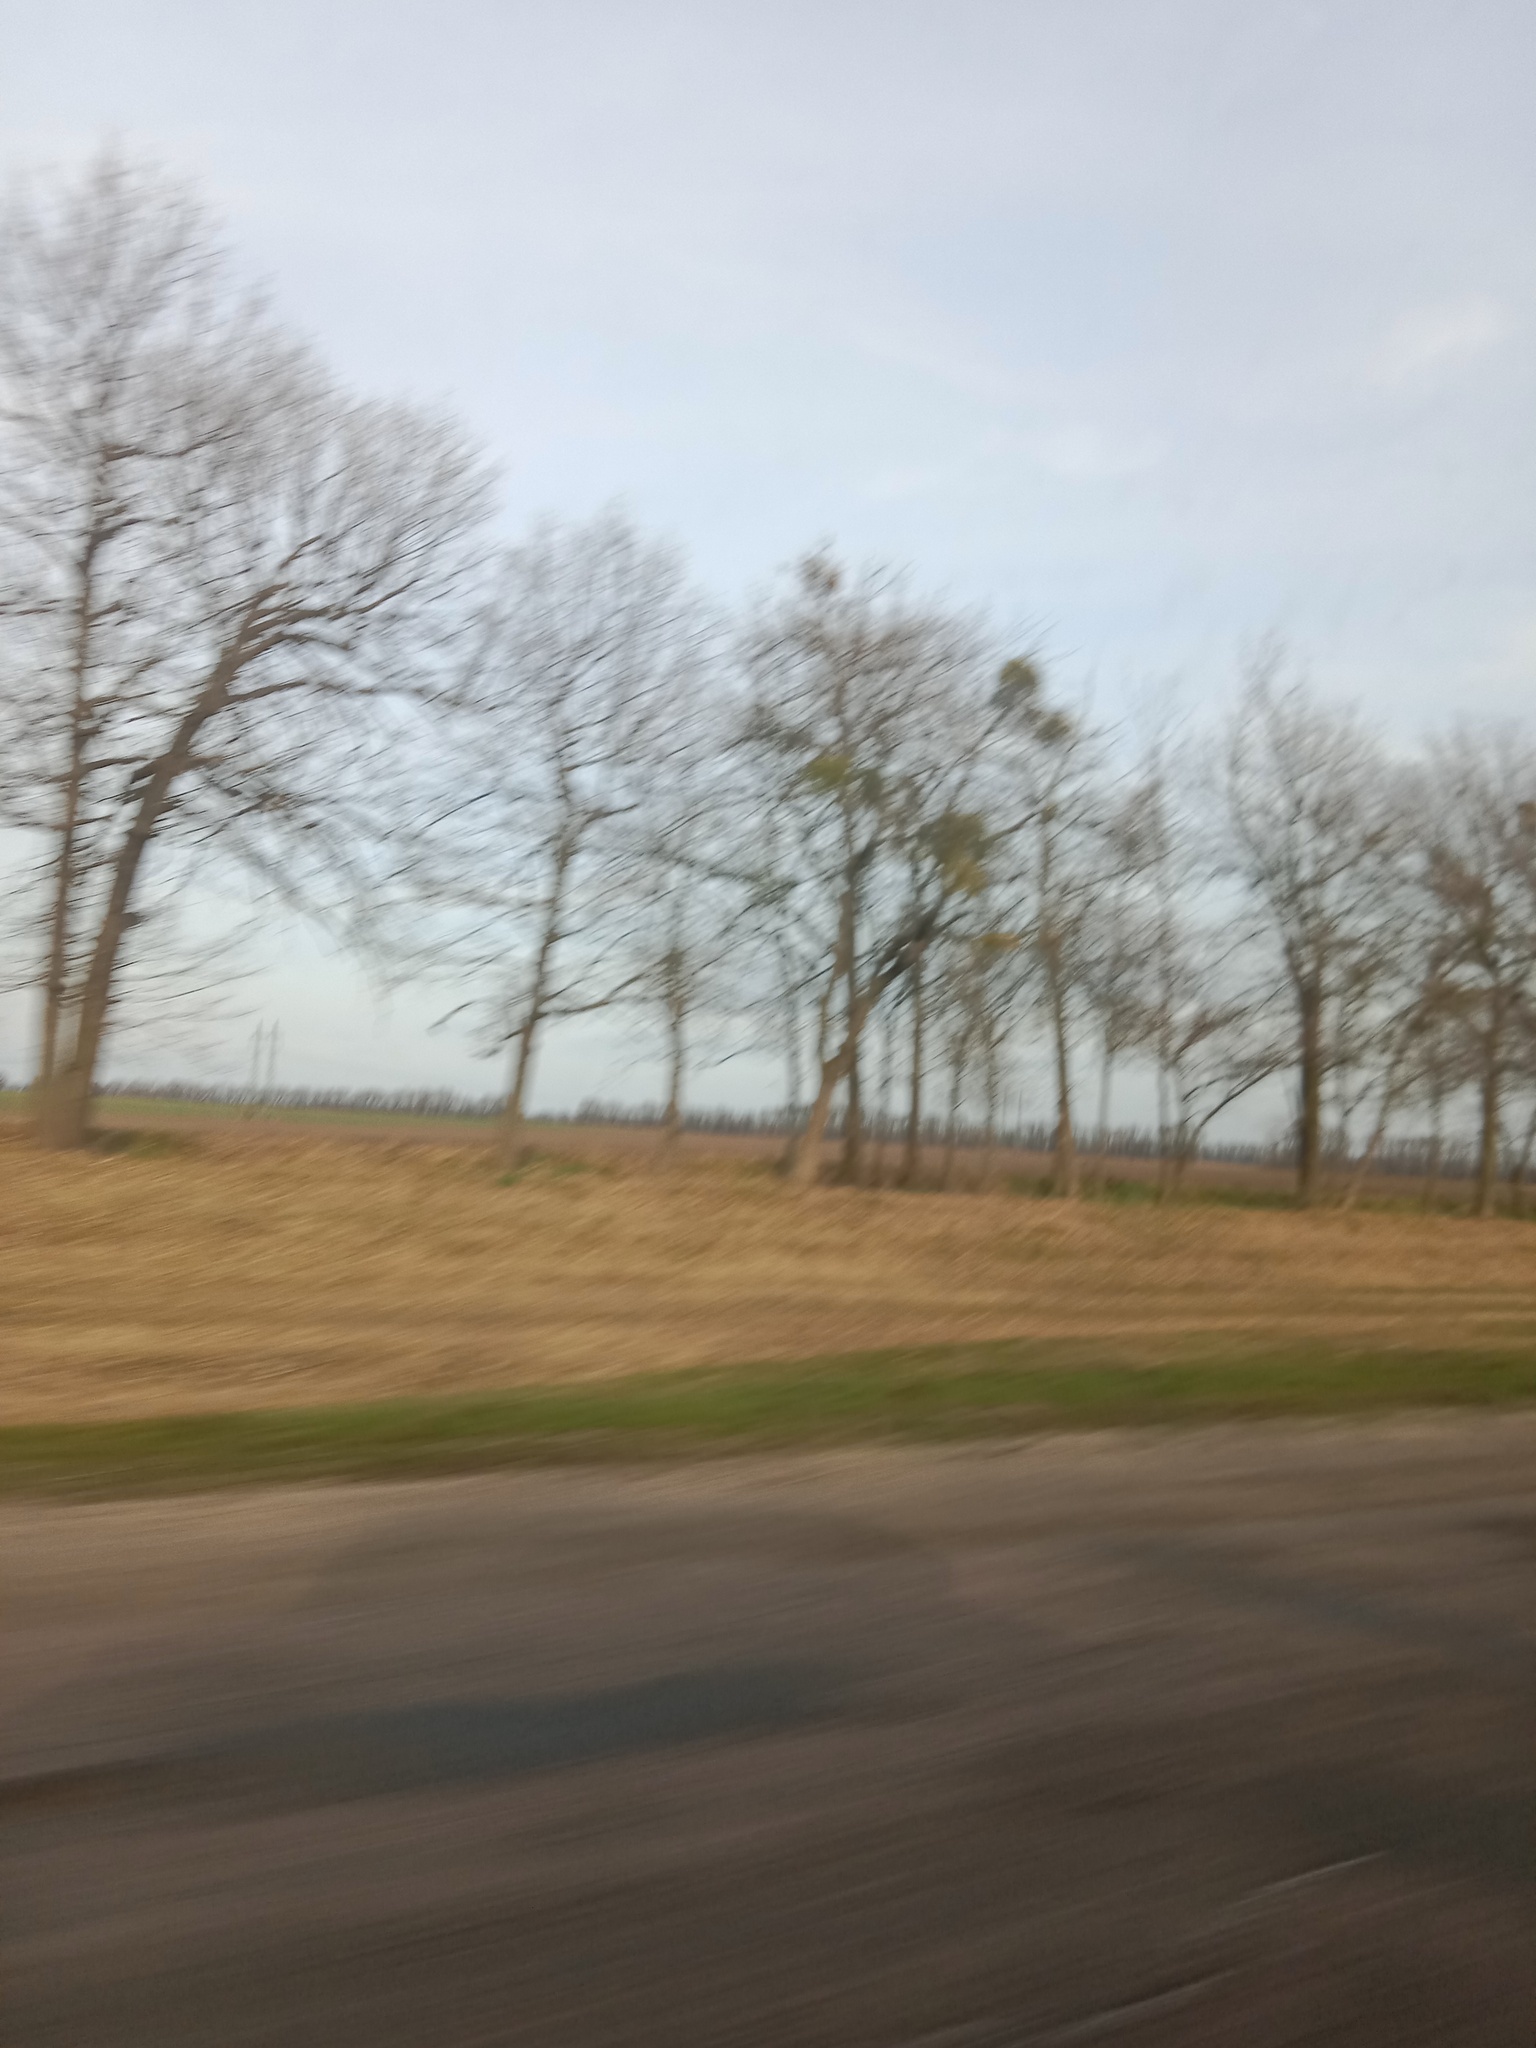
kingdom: Plantae
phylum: Tracheophyta
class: Magnoliopsida
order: Santalales
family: Viscaceae
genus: Viscum
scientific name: Viscum album
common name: Mistletoe
